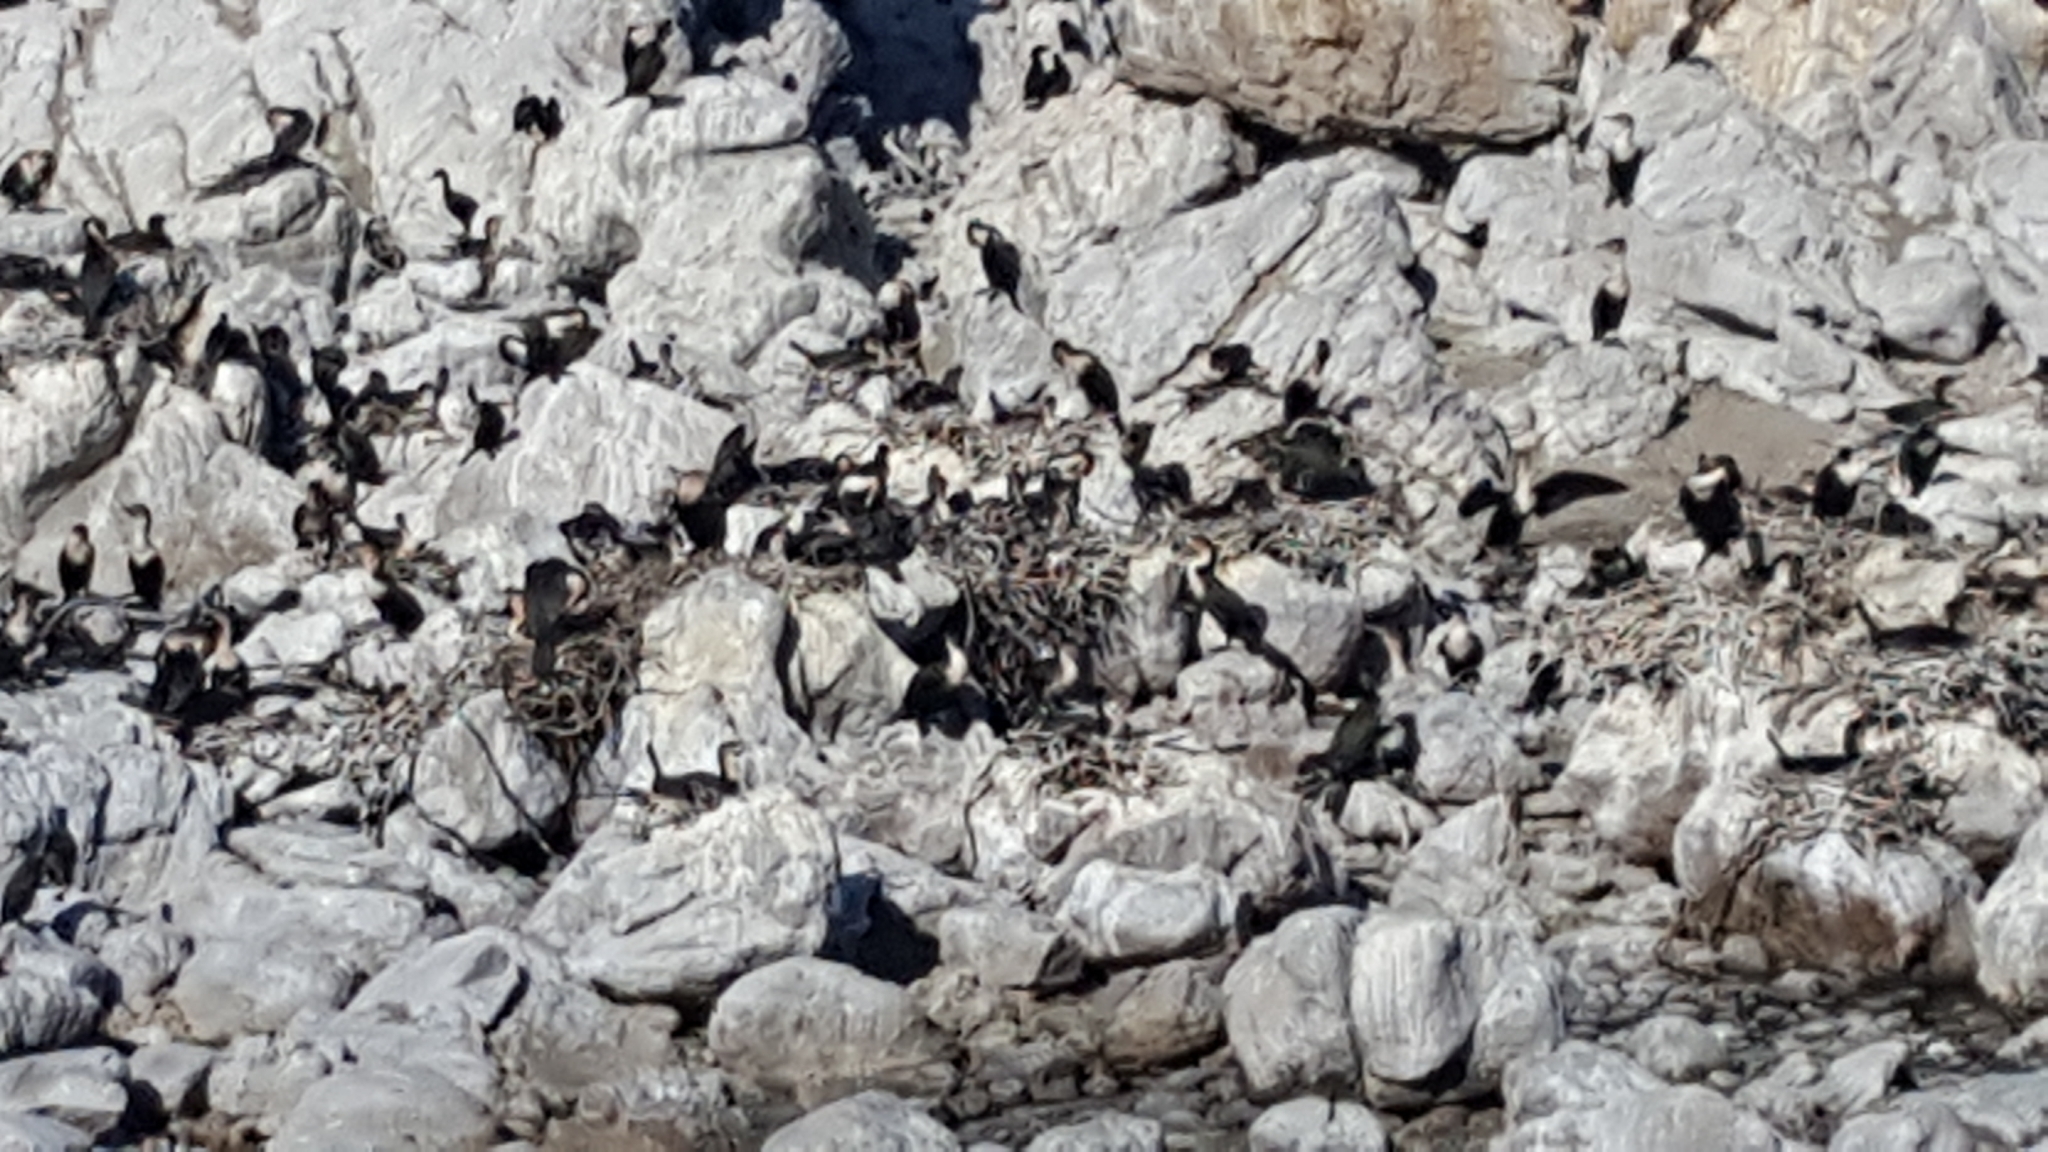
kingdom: Animalia
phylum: Chordata
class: Aves
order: Suliformes
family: Phalacrocoracidae
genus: Phalacrocorax
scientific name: Phalacrocorax carbo
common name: Great cormorant
